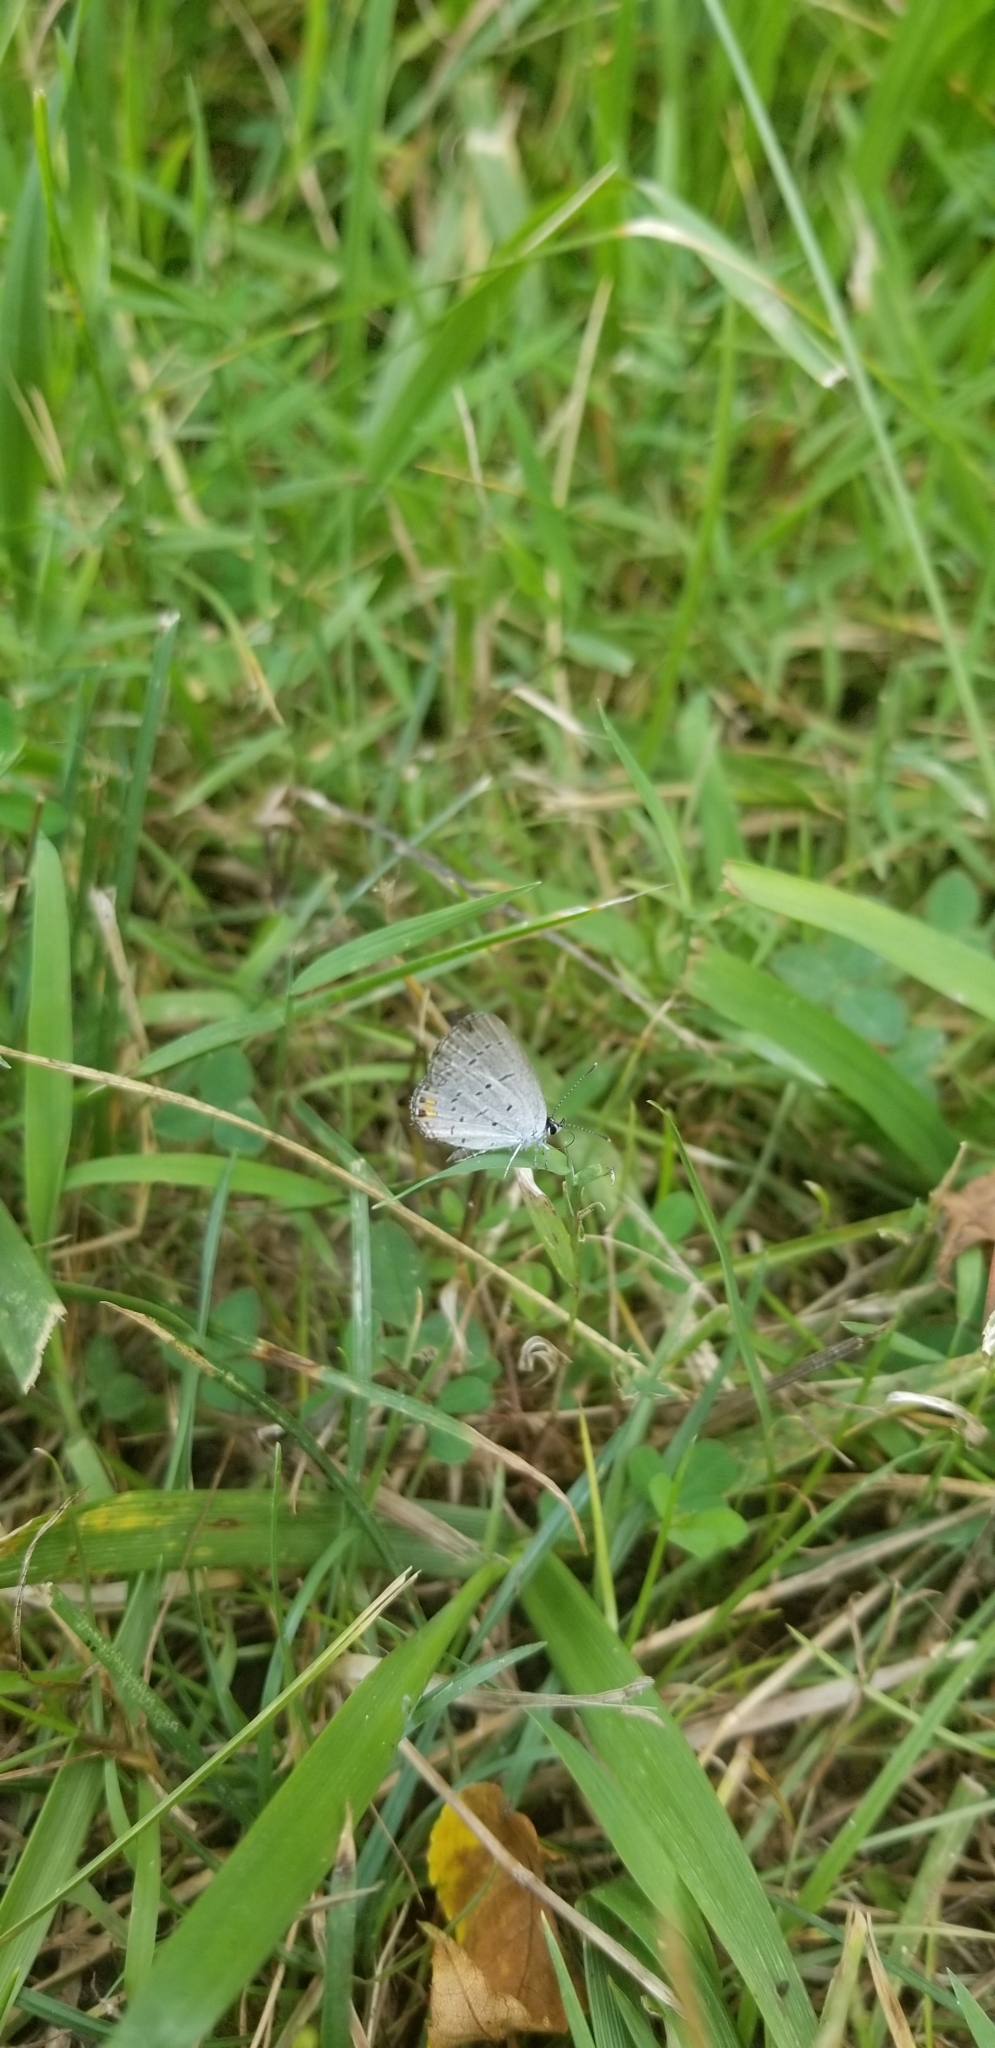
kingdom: Animalia
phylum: Arthropoda
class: Insecta
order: Lepidoptera
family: Lycaenidae
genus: Elkalyce
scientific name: Elkalyce comyntas
